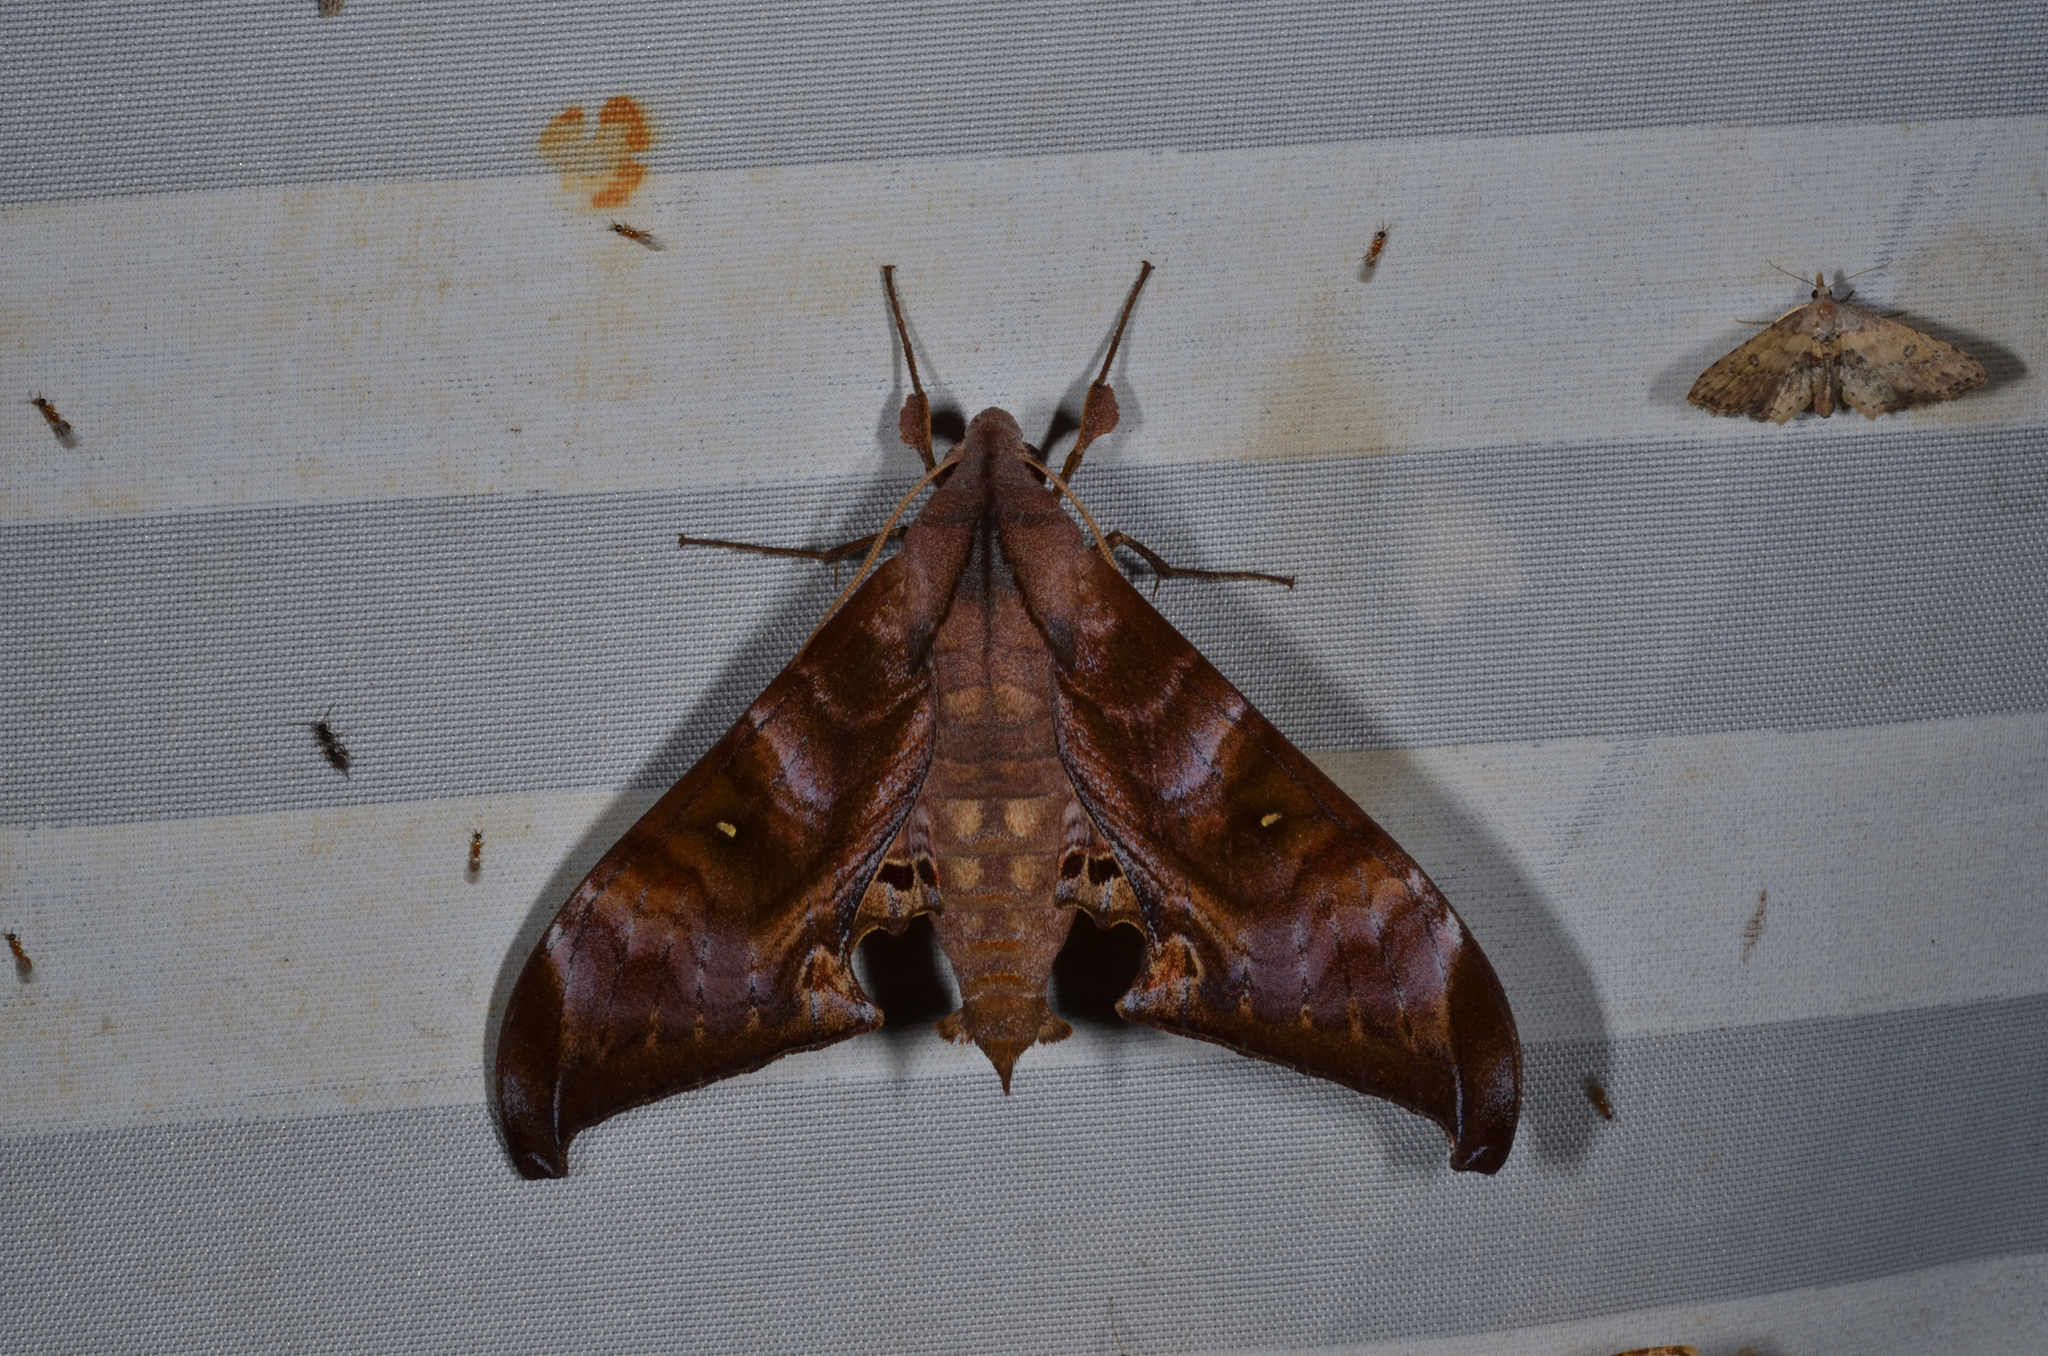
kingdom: Animalia
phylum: Arthropoda
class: Insecta
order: Lepidoptera
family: Sphingidae
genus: Barbourion
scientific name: Barbourion lemaii
